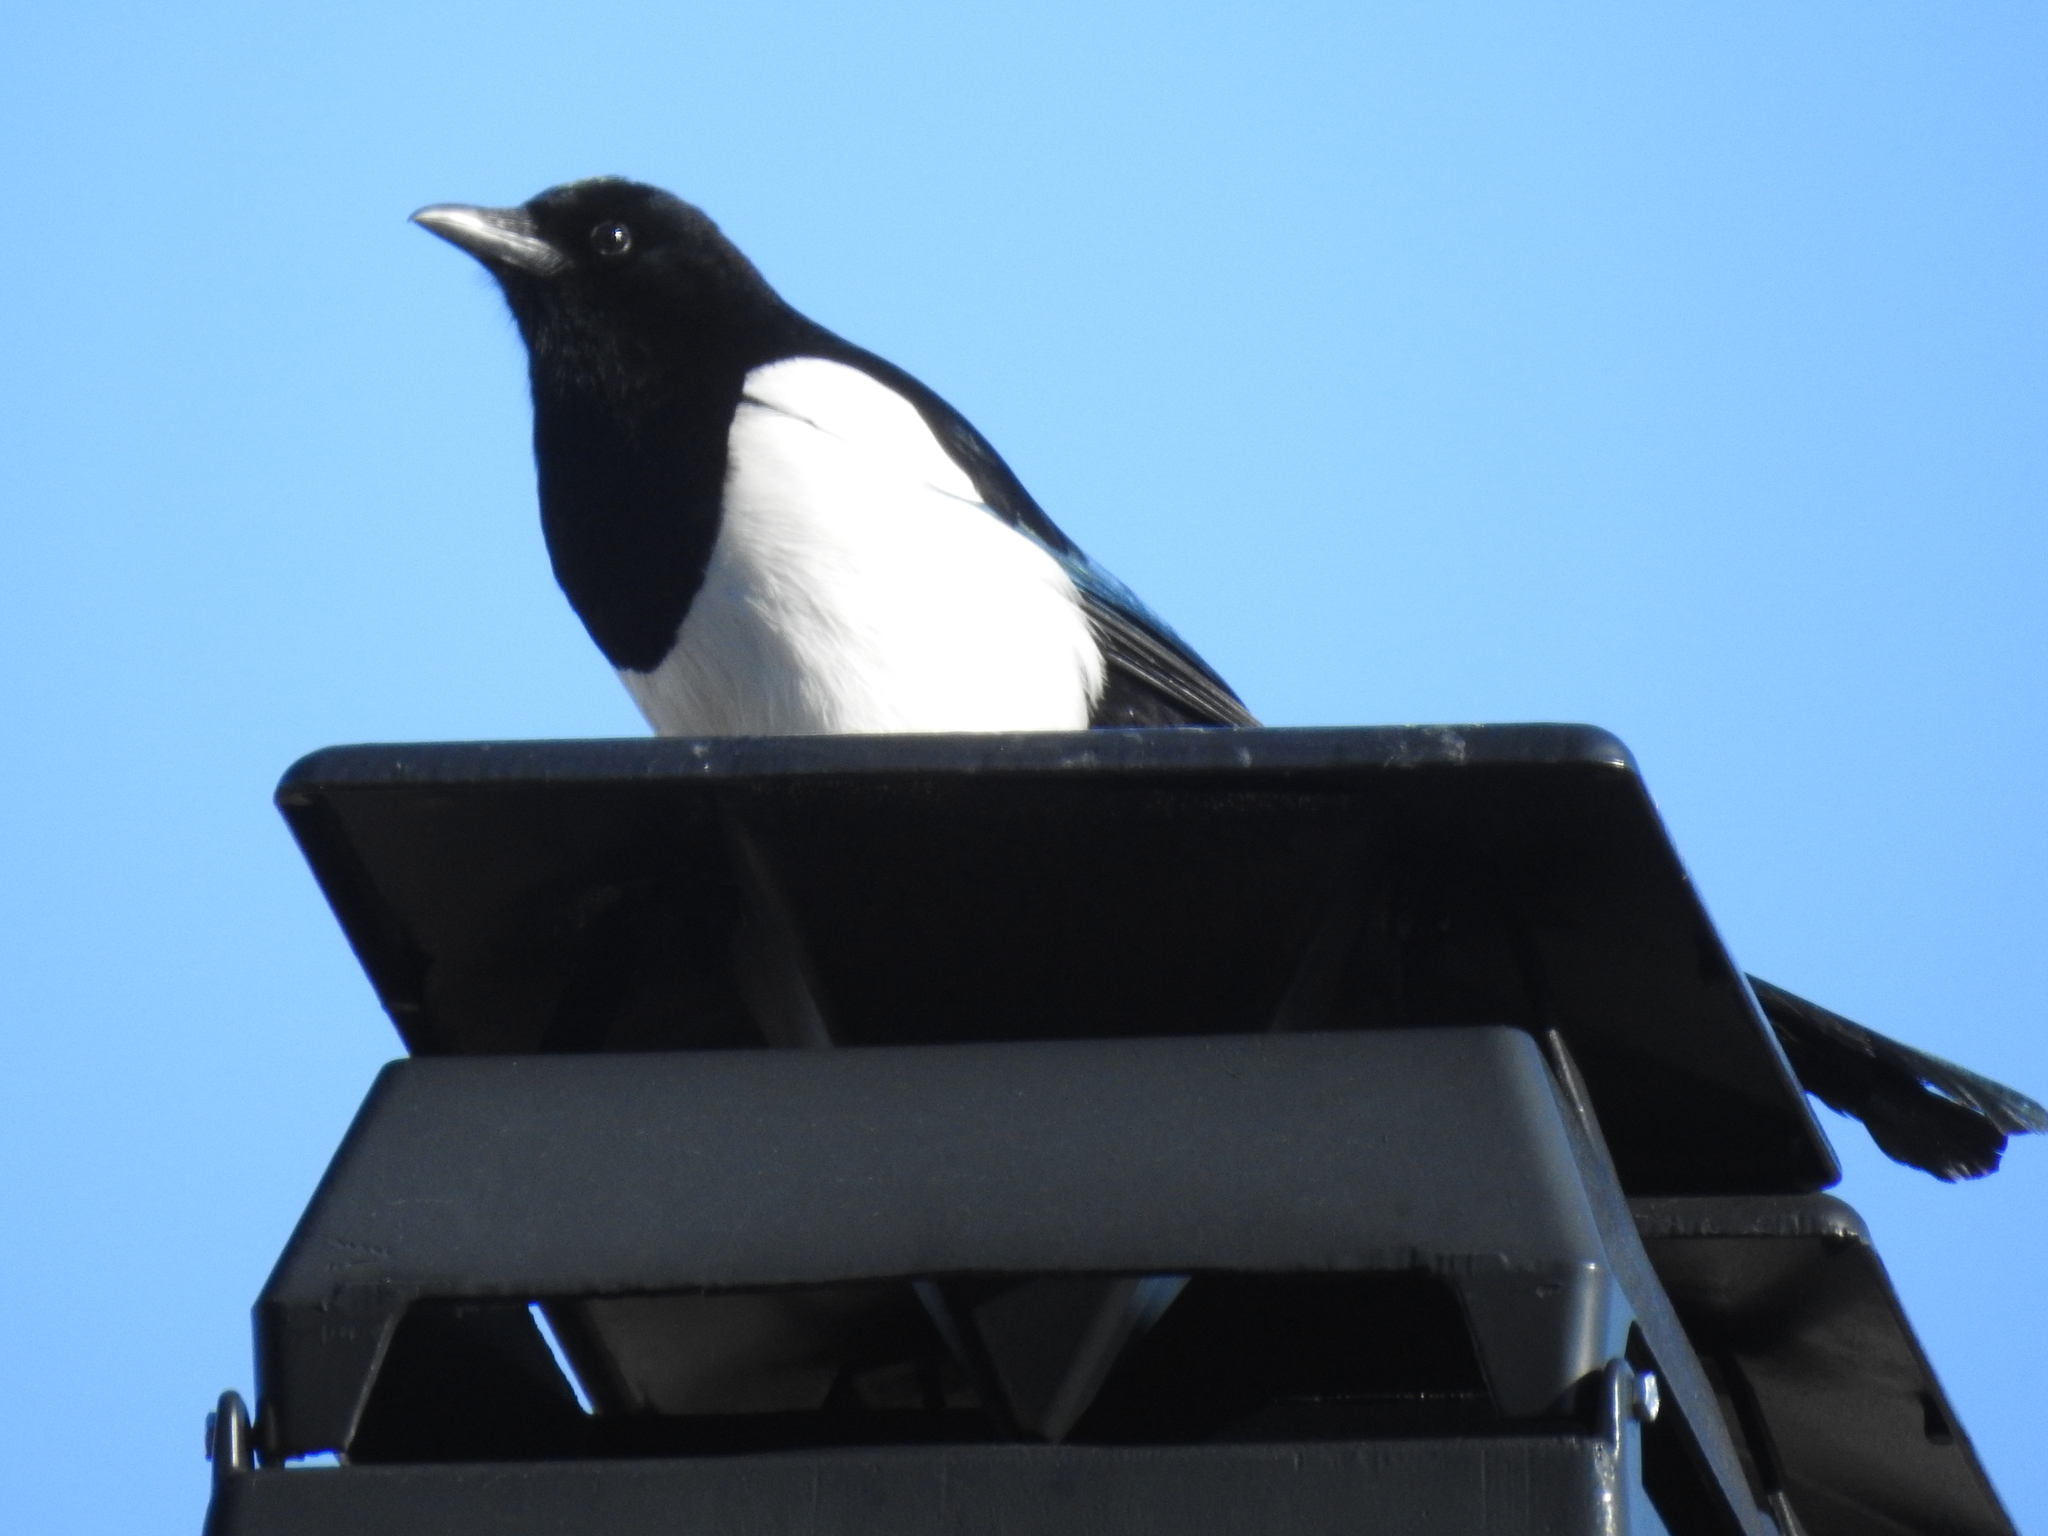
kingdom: Animalia
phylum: Chordata
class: Aves
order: Passeriformes
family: Corvidae
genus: Pica
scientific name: Pica pica
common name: Eurasian magpie
